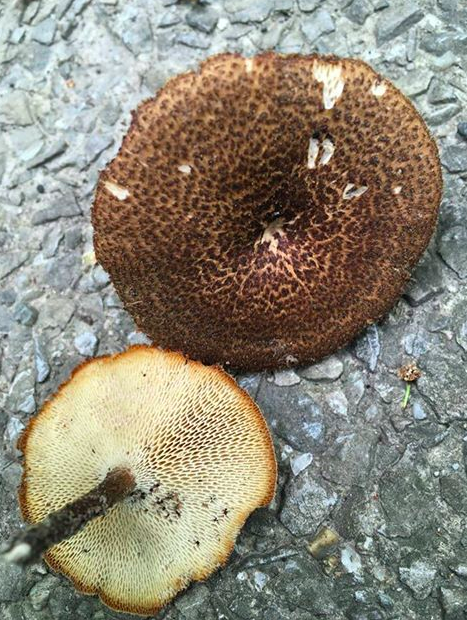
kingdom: Fungi
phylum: Basidiomycota
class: Agaricomycetes
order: Polyporales
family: Polyporaceae
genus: Lentinus
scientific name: Lentinus arcularius
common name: Spring polypore
